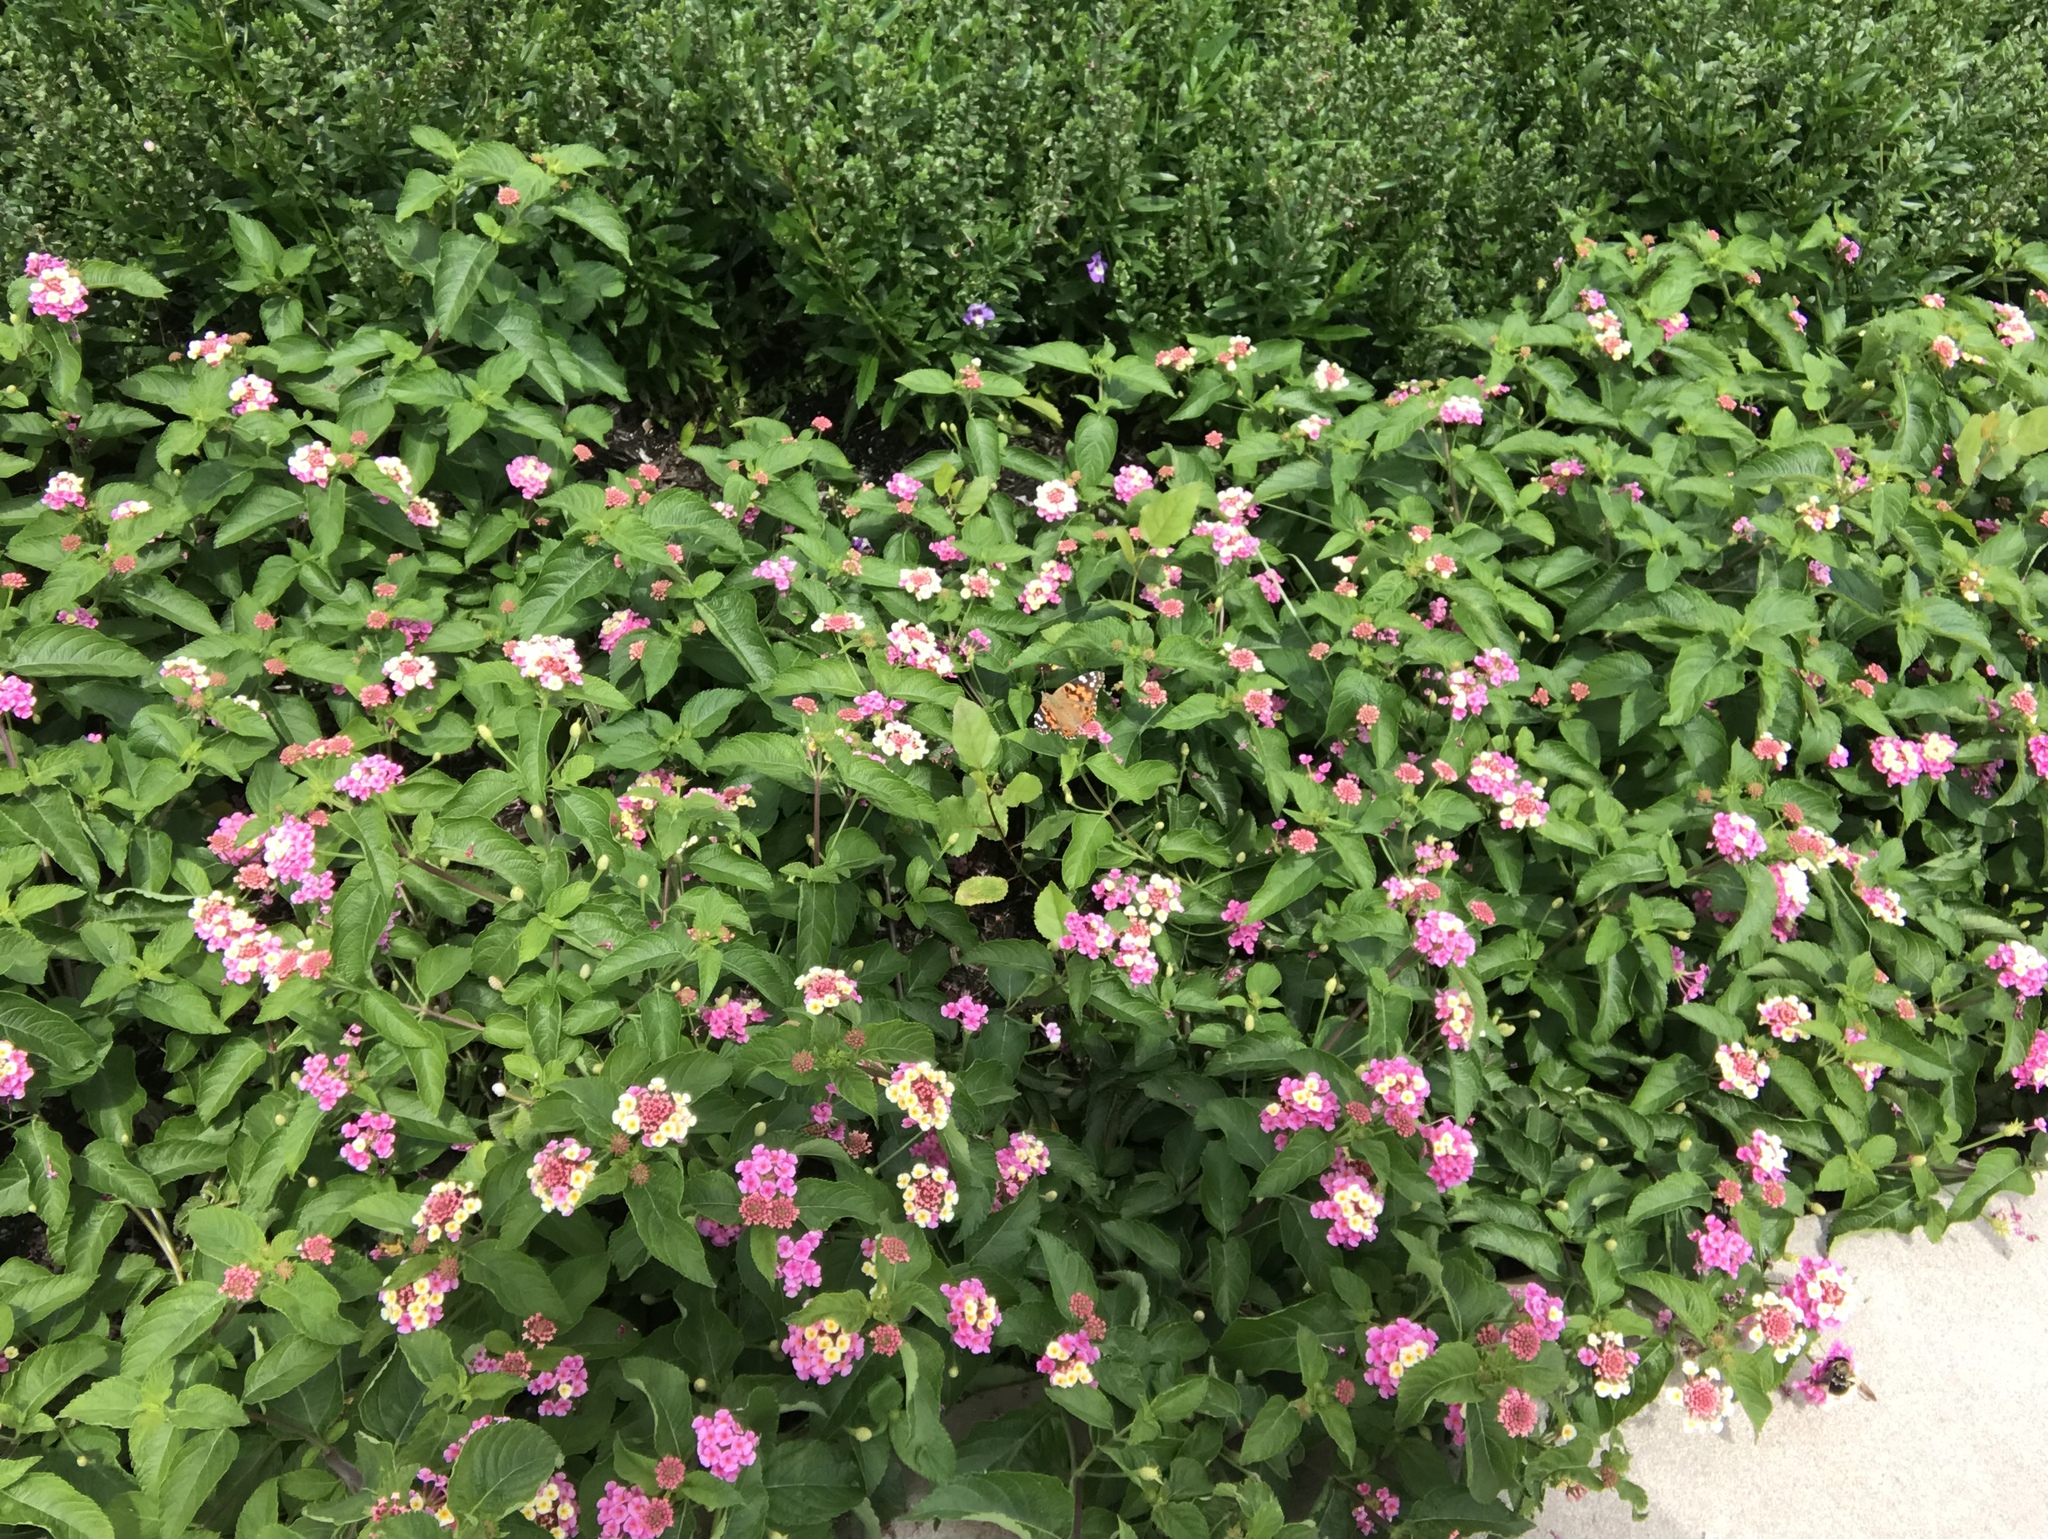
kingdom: Animalia
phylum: Arthropoda
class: Insecta
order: Lepidoptera
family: Nymphalidae
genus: Vanessa
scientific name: Vanessa cardui
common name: Painted lady
